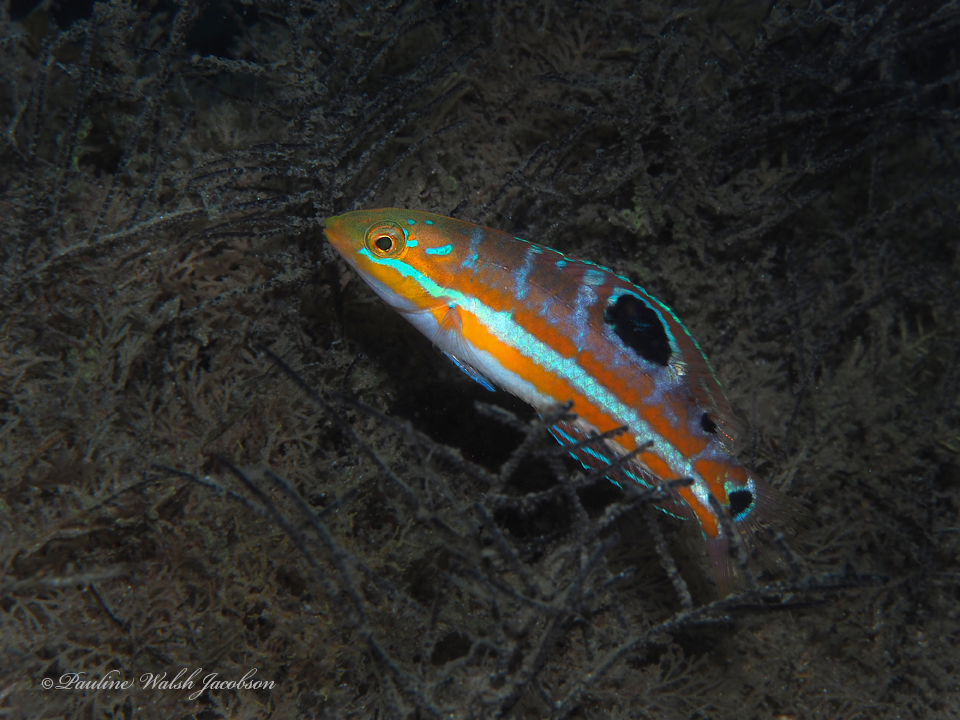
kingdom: Animalia
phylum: Chordata
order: Perciformes
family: Labridae
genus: Halichoeres
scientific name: Halichoeres radiatus
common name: Puddingwife
